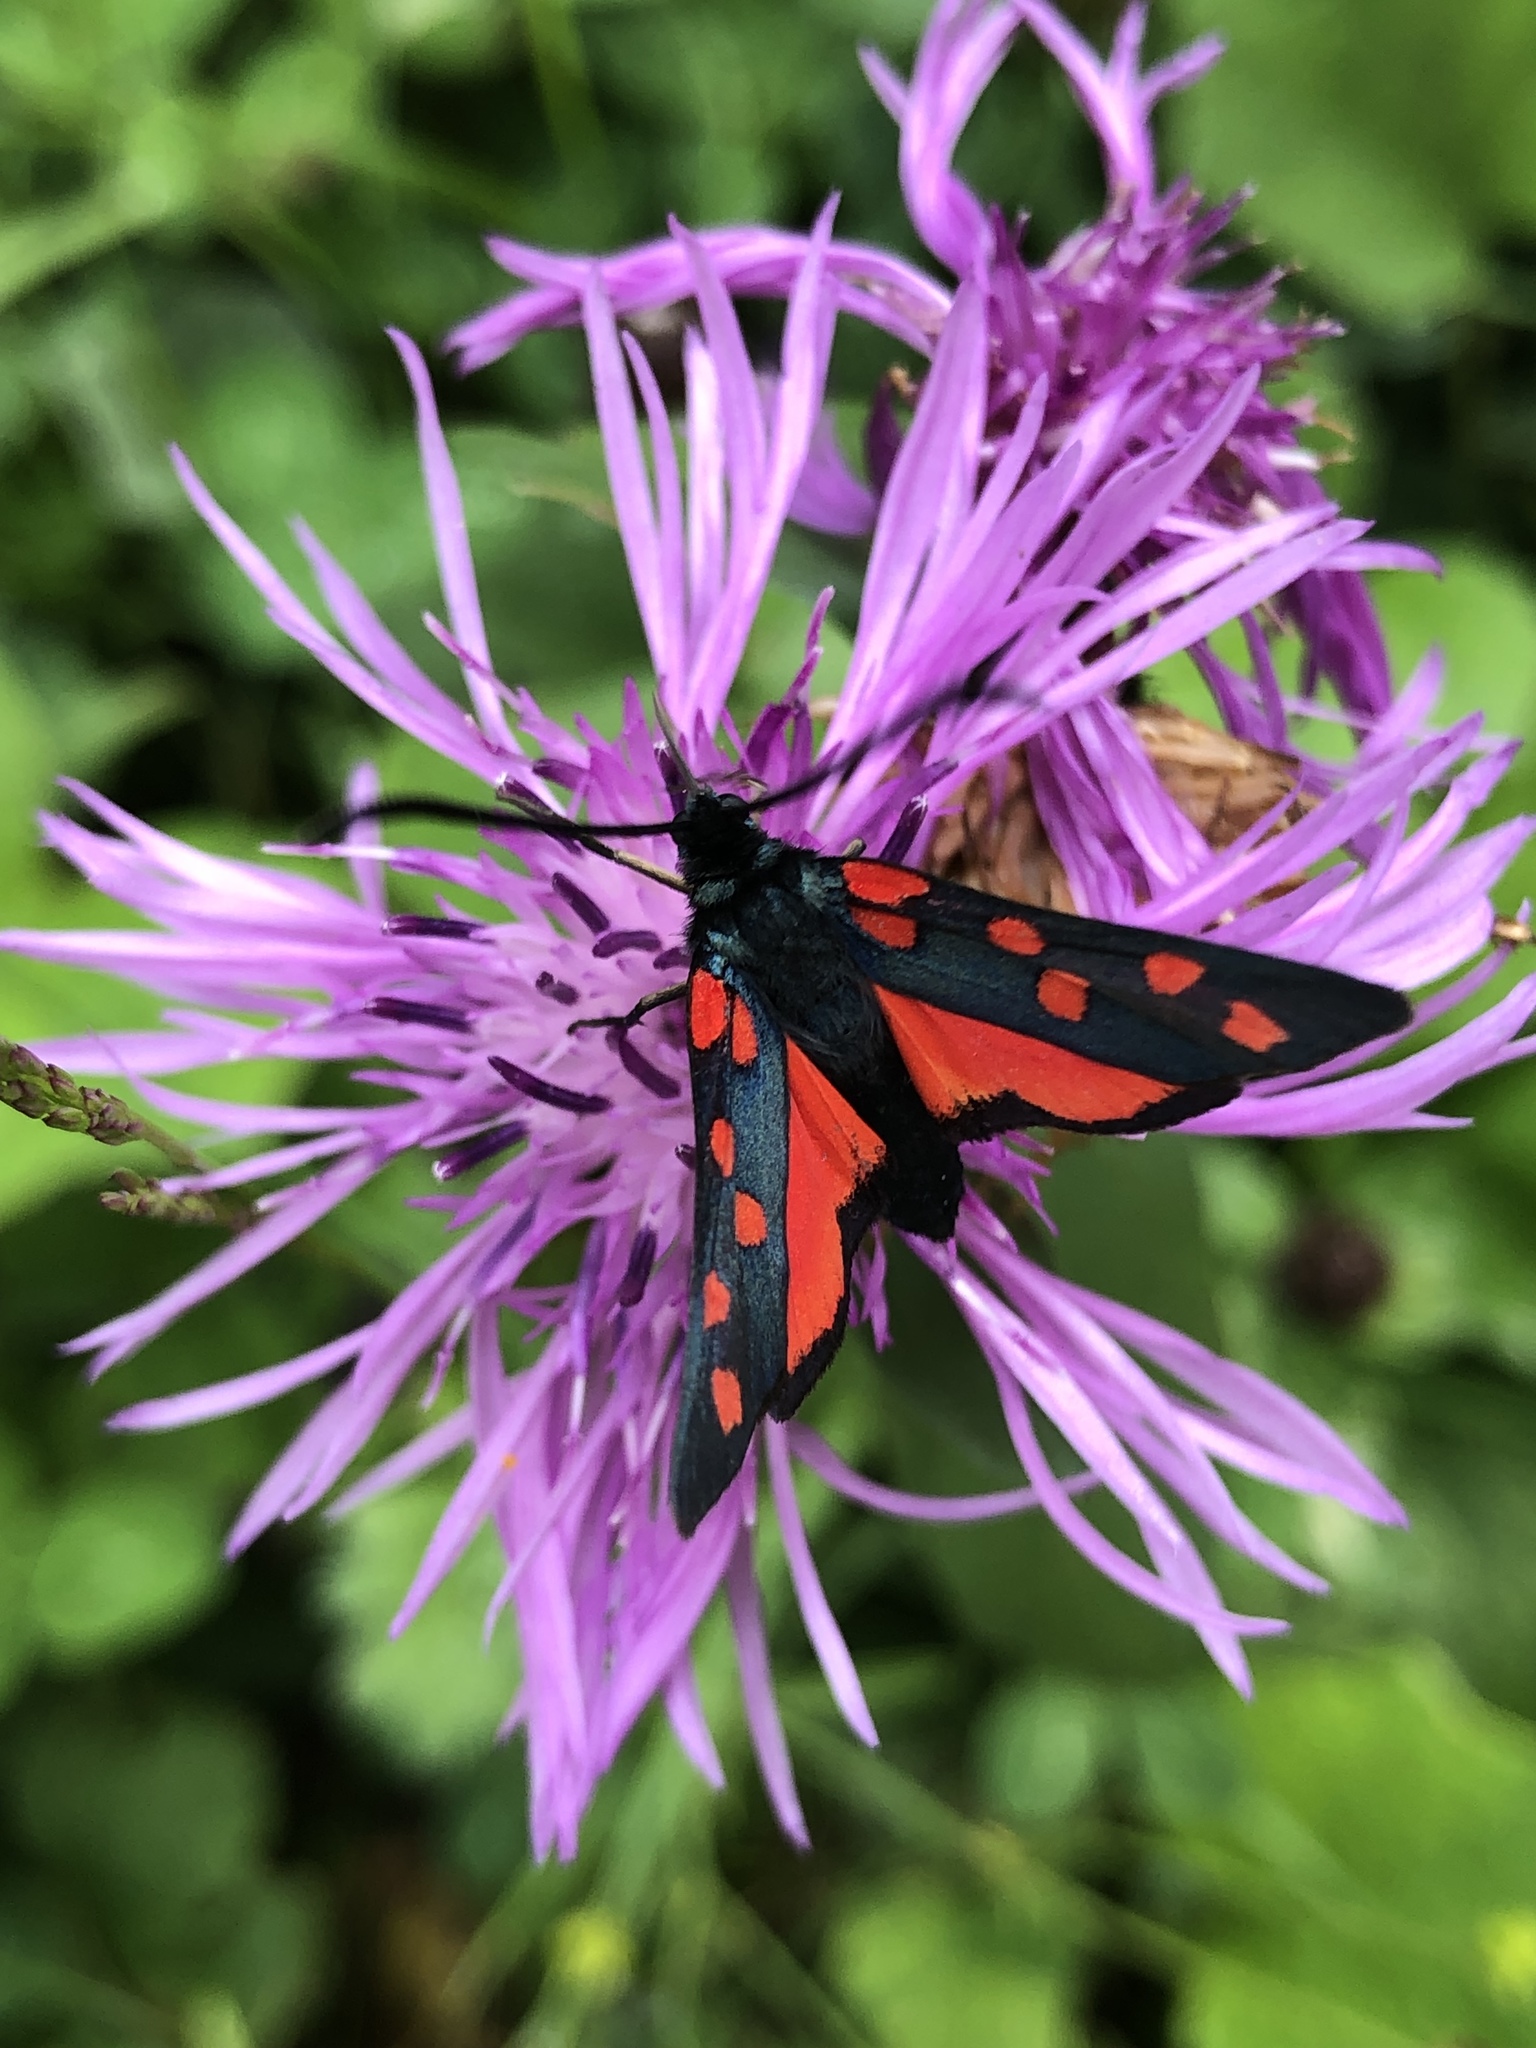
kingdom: Animalia
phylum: Arthropoda
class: Insecta
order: Lepidoptera
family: Zygaenidae
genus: Zygaena
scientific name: Zygaena transalpina
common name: Southern six spot burnet
